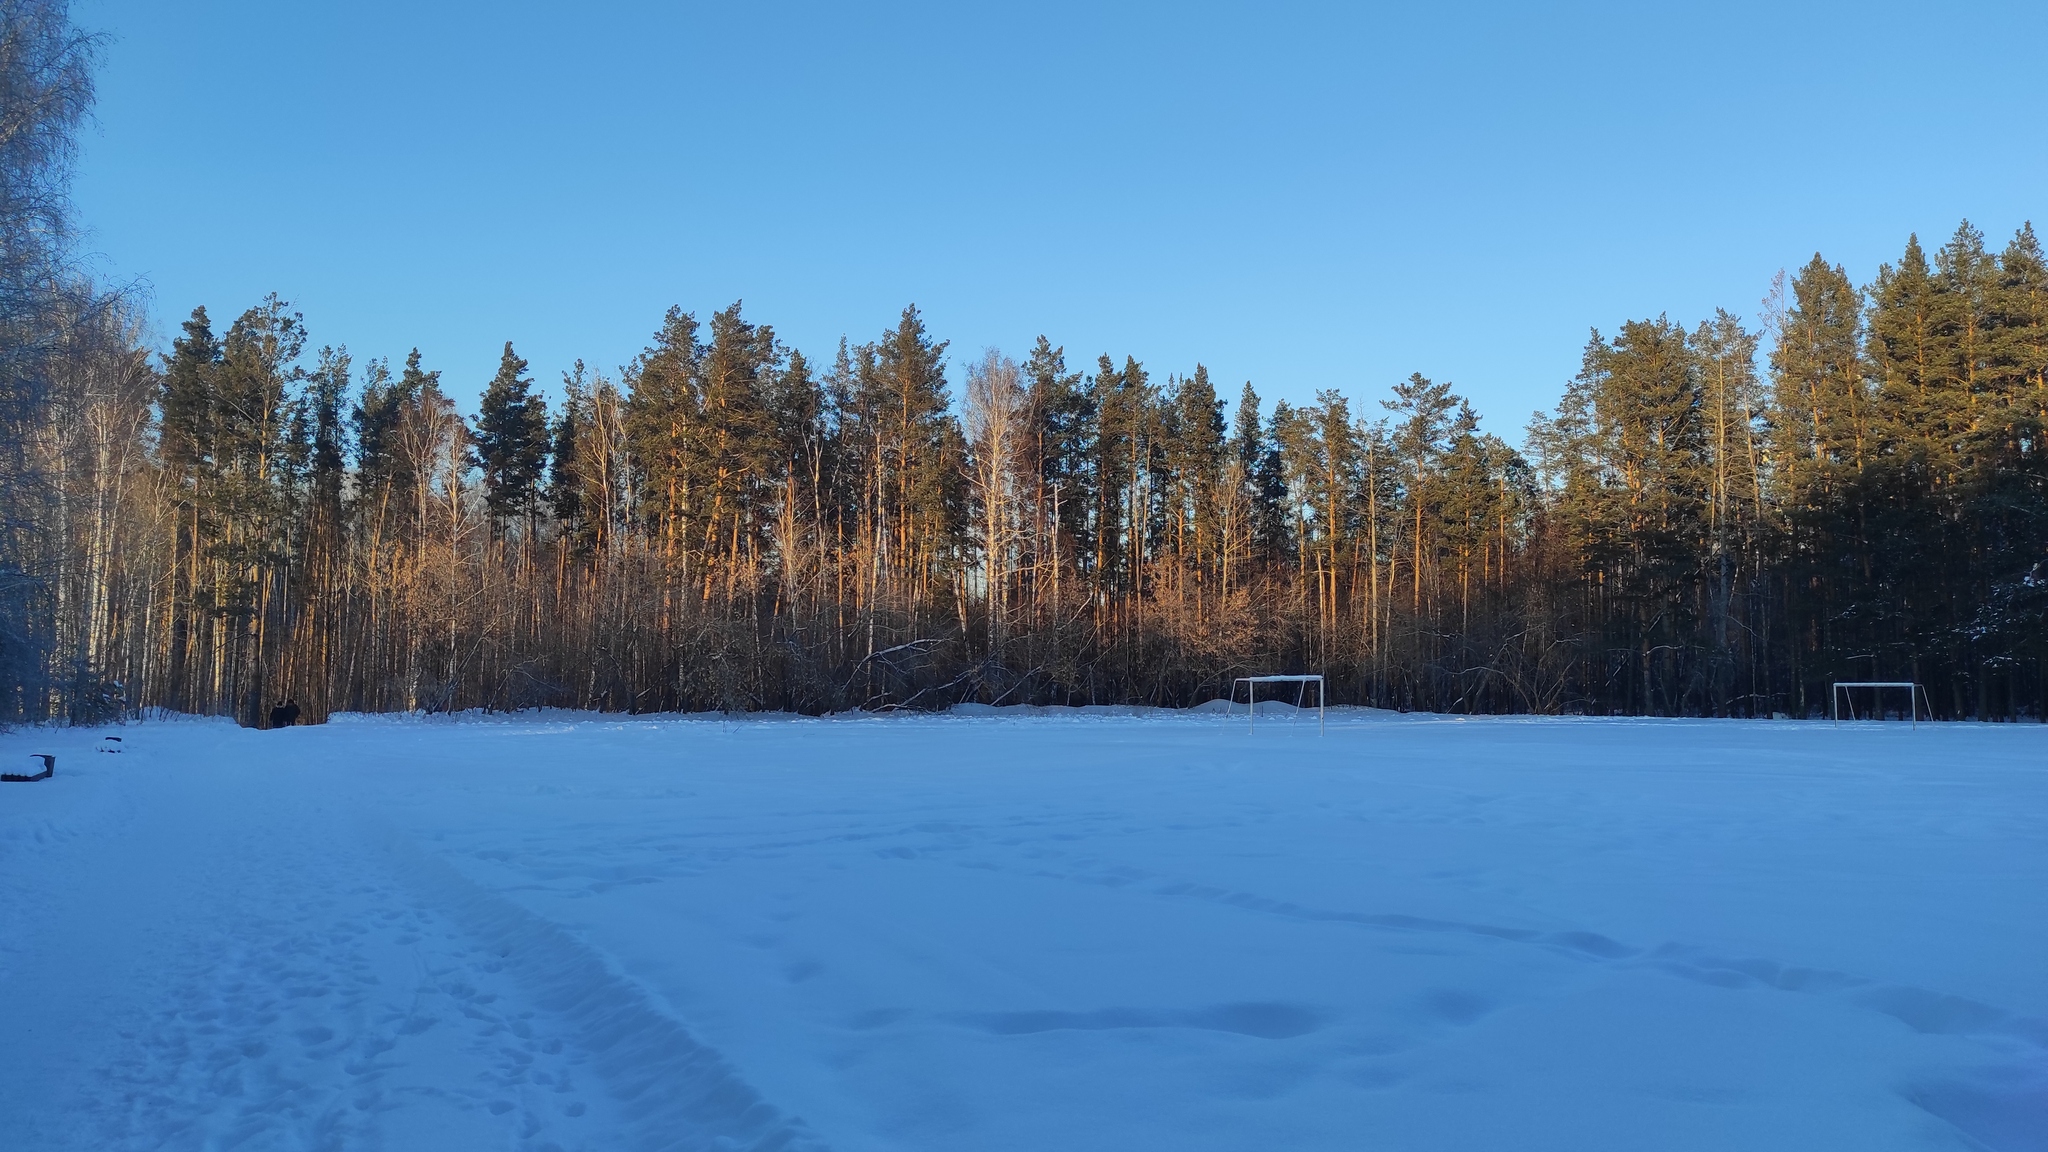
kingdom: Plantae
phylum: Tracheophyta
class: Pinopsida
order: Pinales
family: Pinaceae
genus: Pinus
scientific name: Pinus sylvestris
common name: Scots pine
